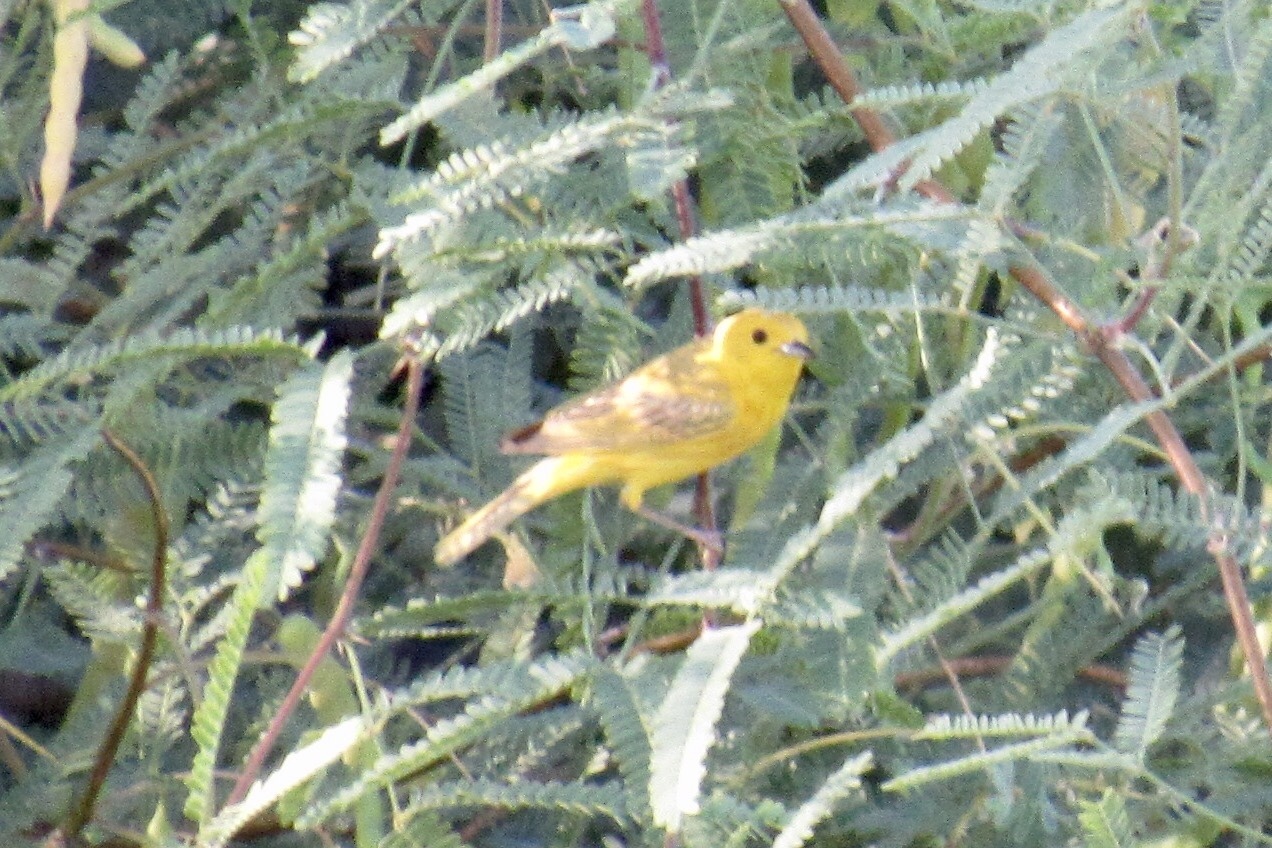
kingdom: Animalia
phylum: Chordata
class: Aves
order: Passeriformes
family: Parulidae
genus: Setophaga
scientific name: Setophaga petechia
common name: Yellow warbler
